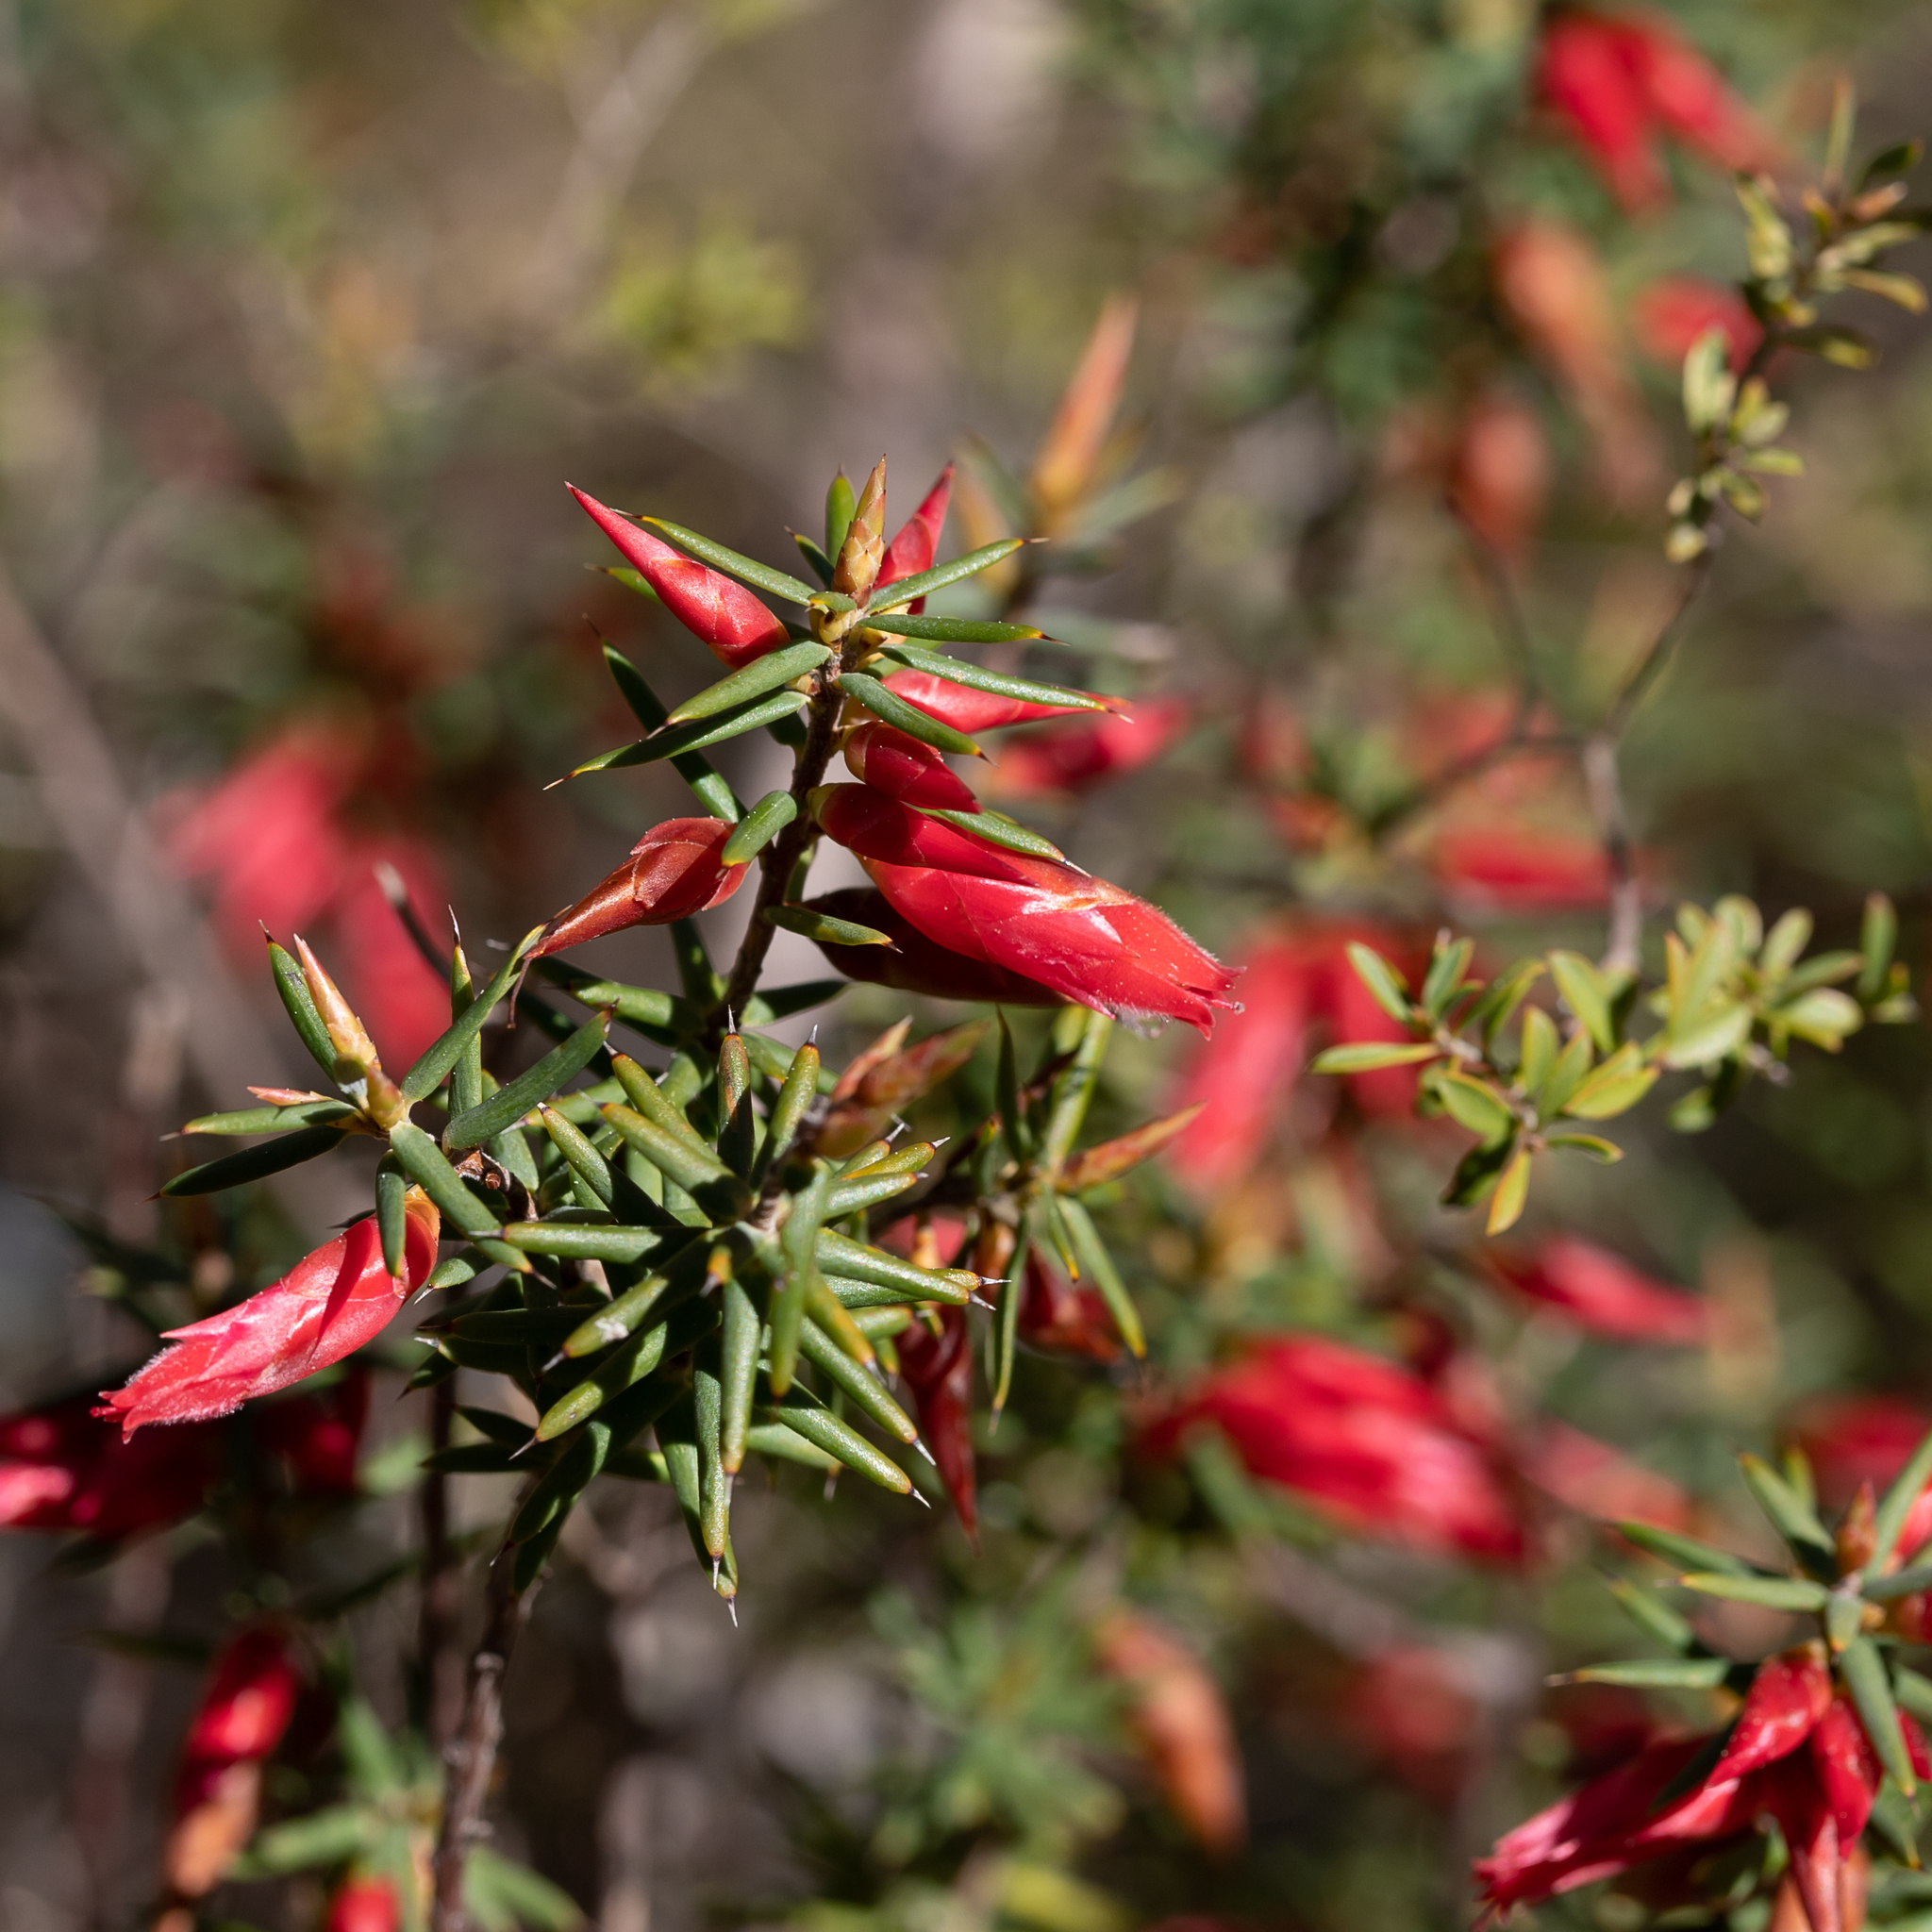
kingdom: Plantae
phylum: Tracheophyta
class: Magnoliopsida
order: Ericales
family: Ericaceae
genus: Stenanthera
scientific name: Stenanthera conostephioides
